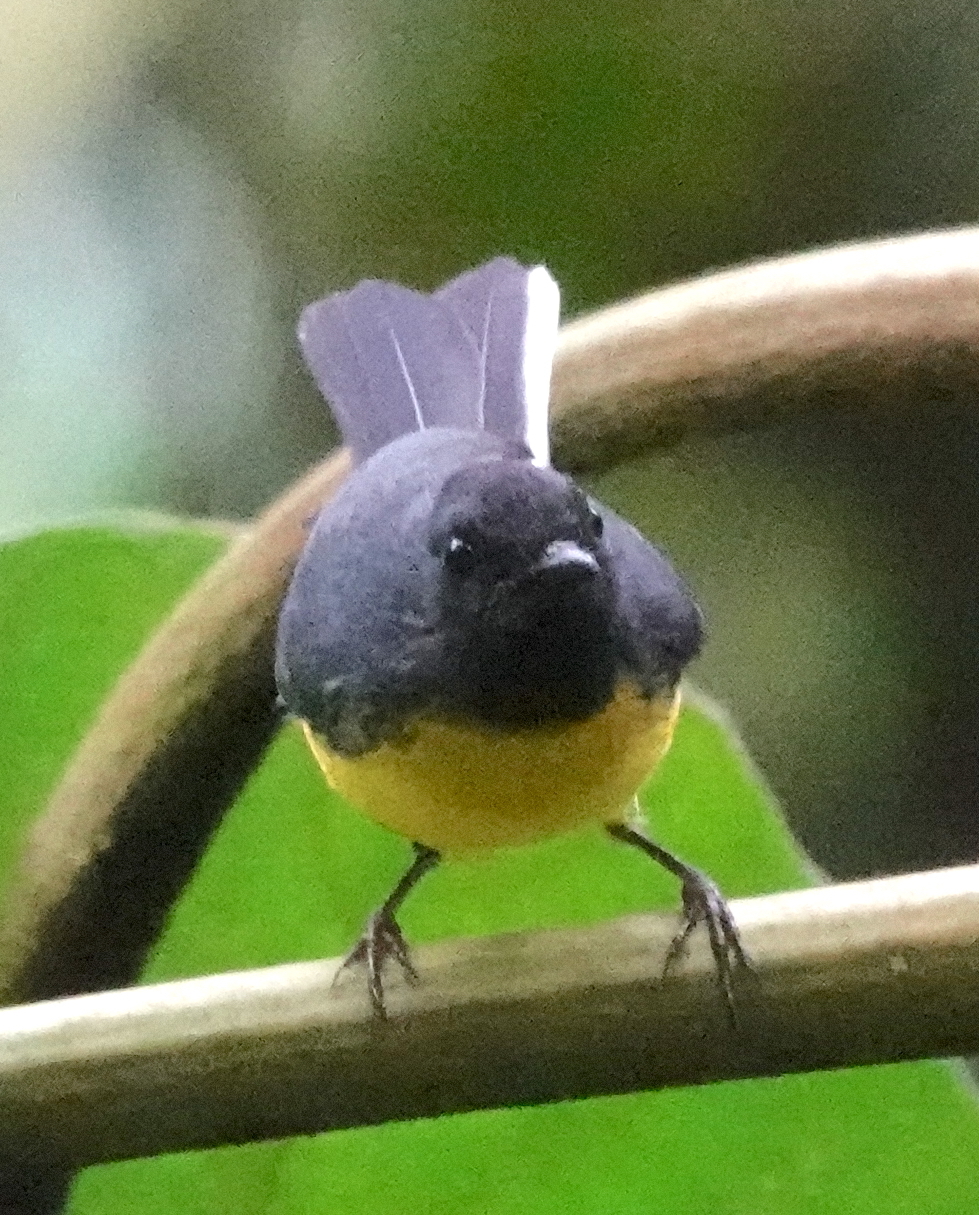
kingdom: Animalia
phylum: Chordata
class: Aves
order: Passeriformes
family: Parulidae
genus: Myioborus
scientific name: Myioborus miniatus
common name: Slate-throated redstart
